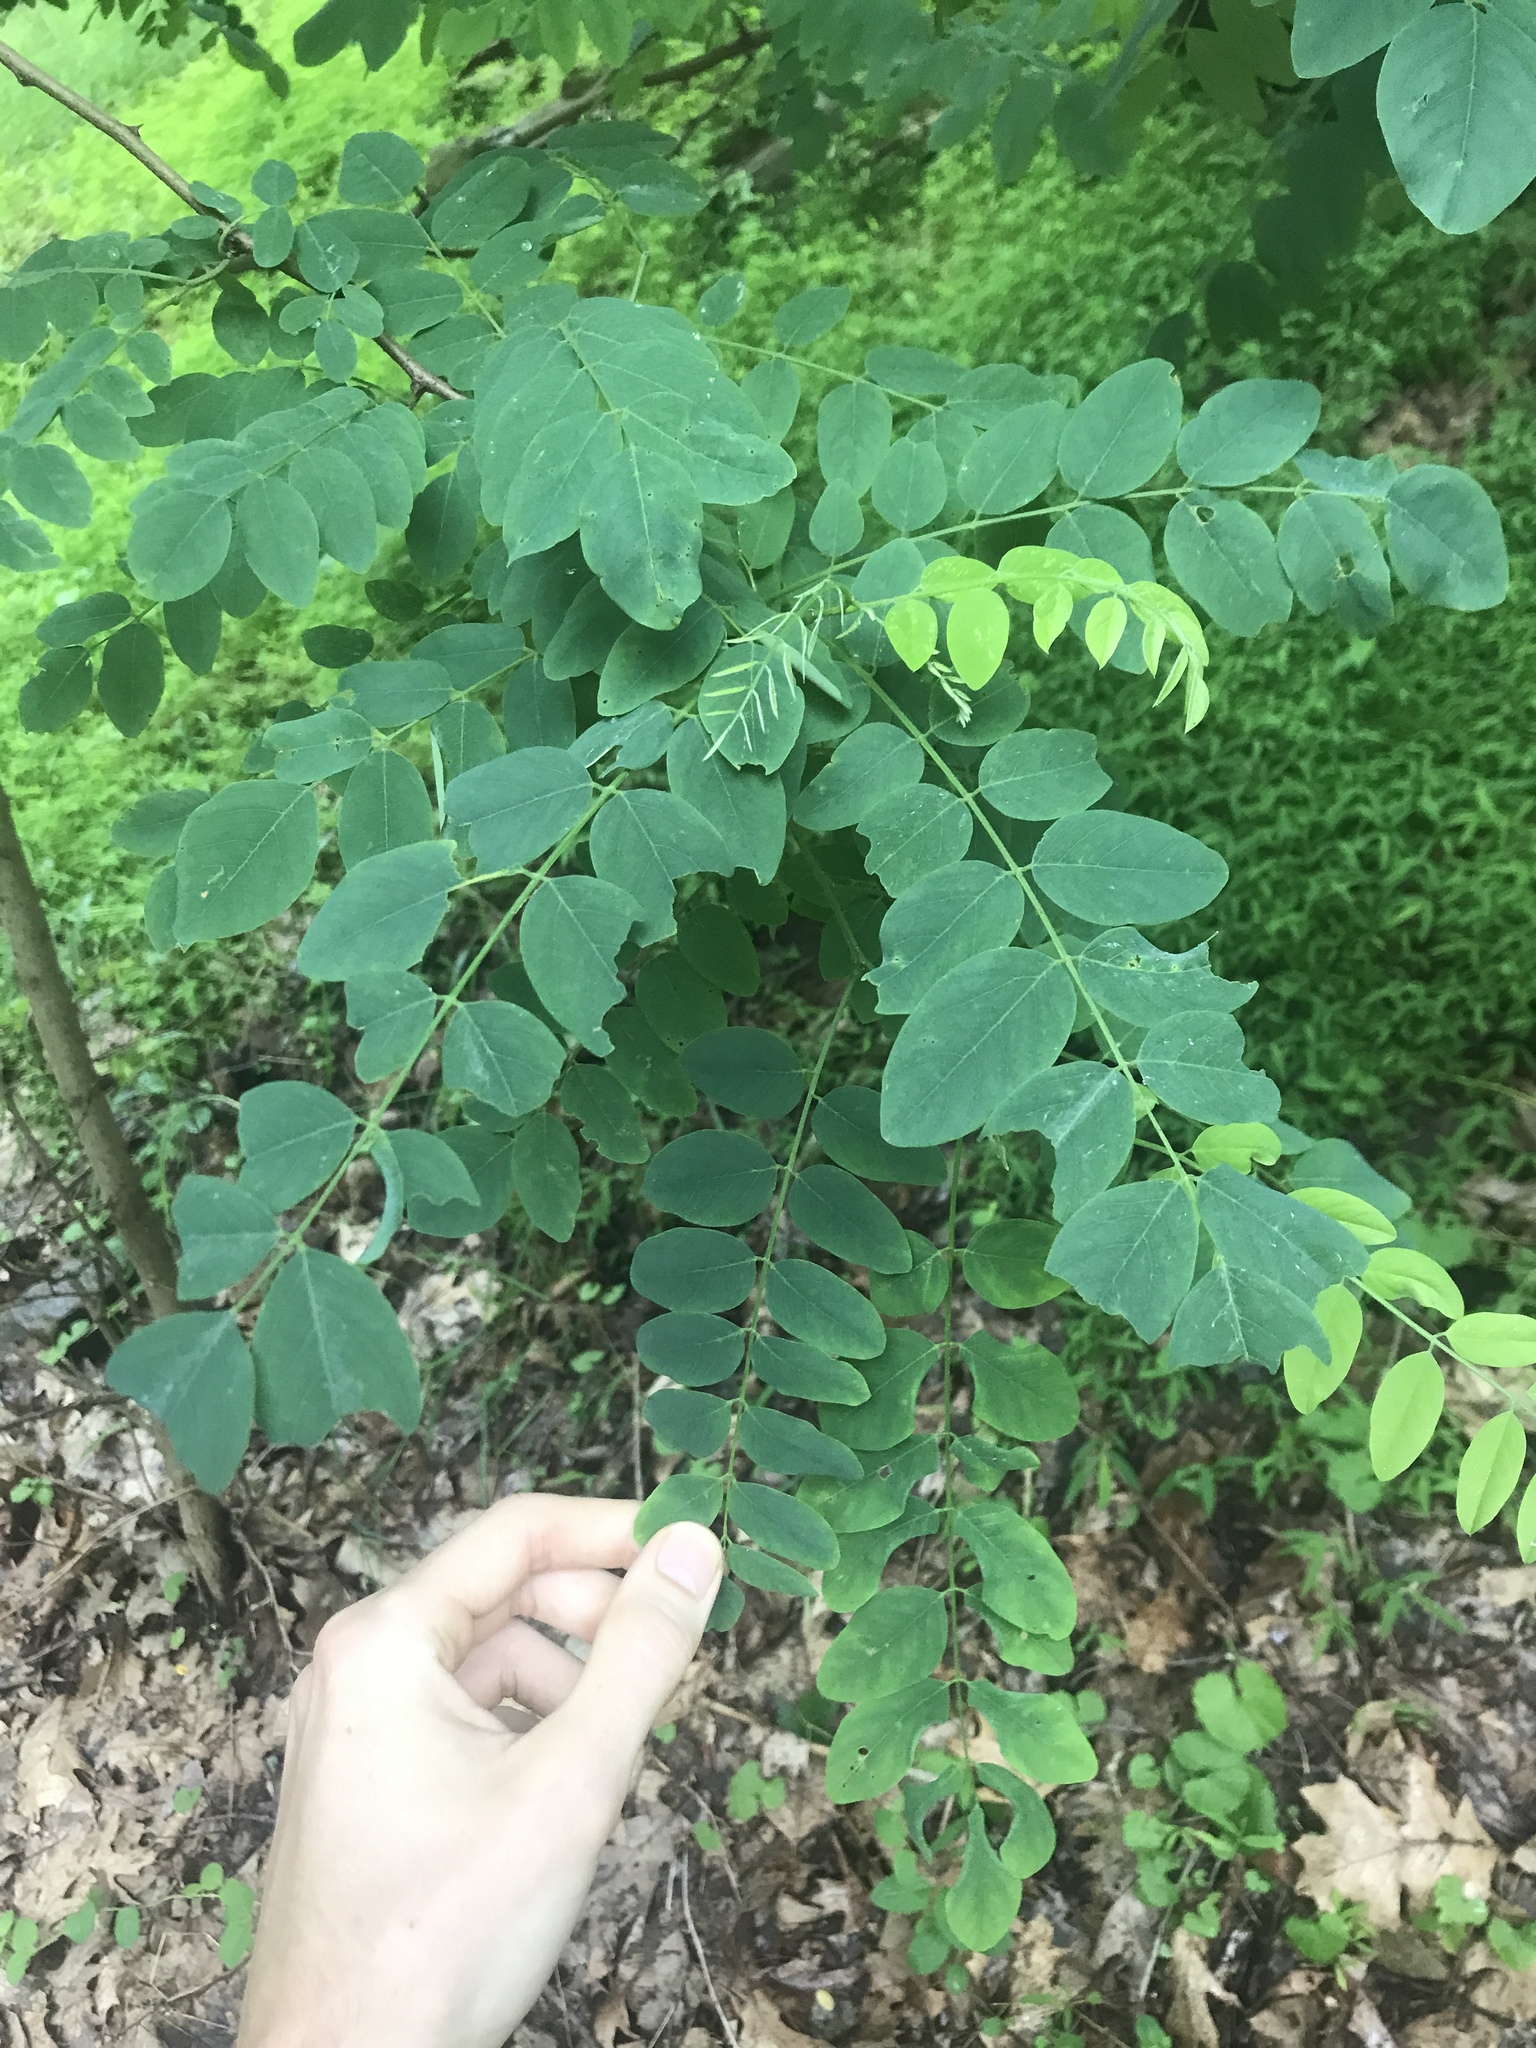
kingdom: Plantae
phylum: Tracheophyta
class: Magnoliopsida
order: Fabales
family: Fabaceae
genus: Robinia
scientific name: Robinia pseudoacacia
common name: Black locust
